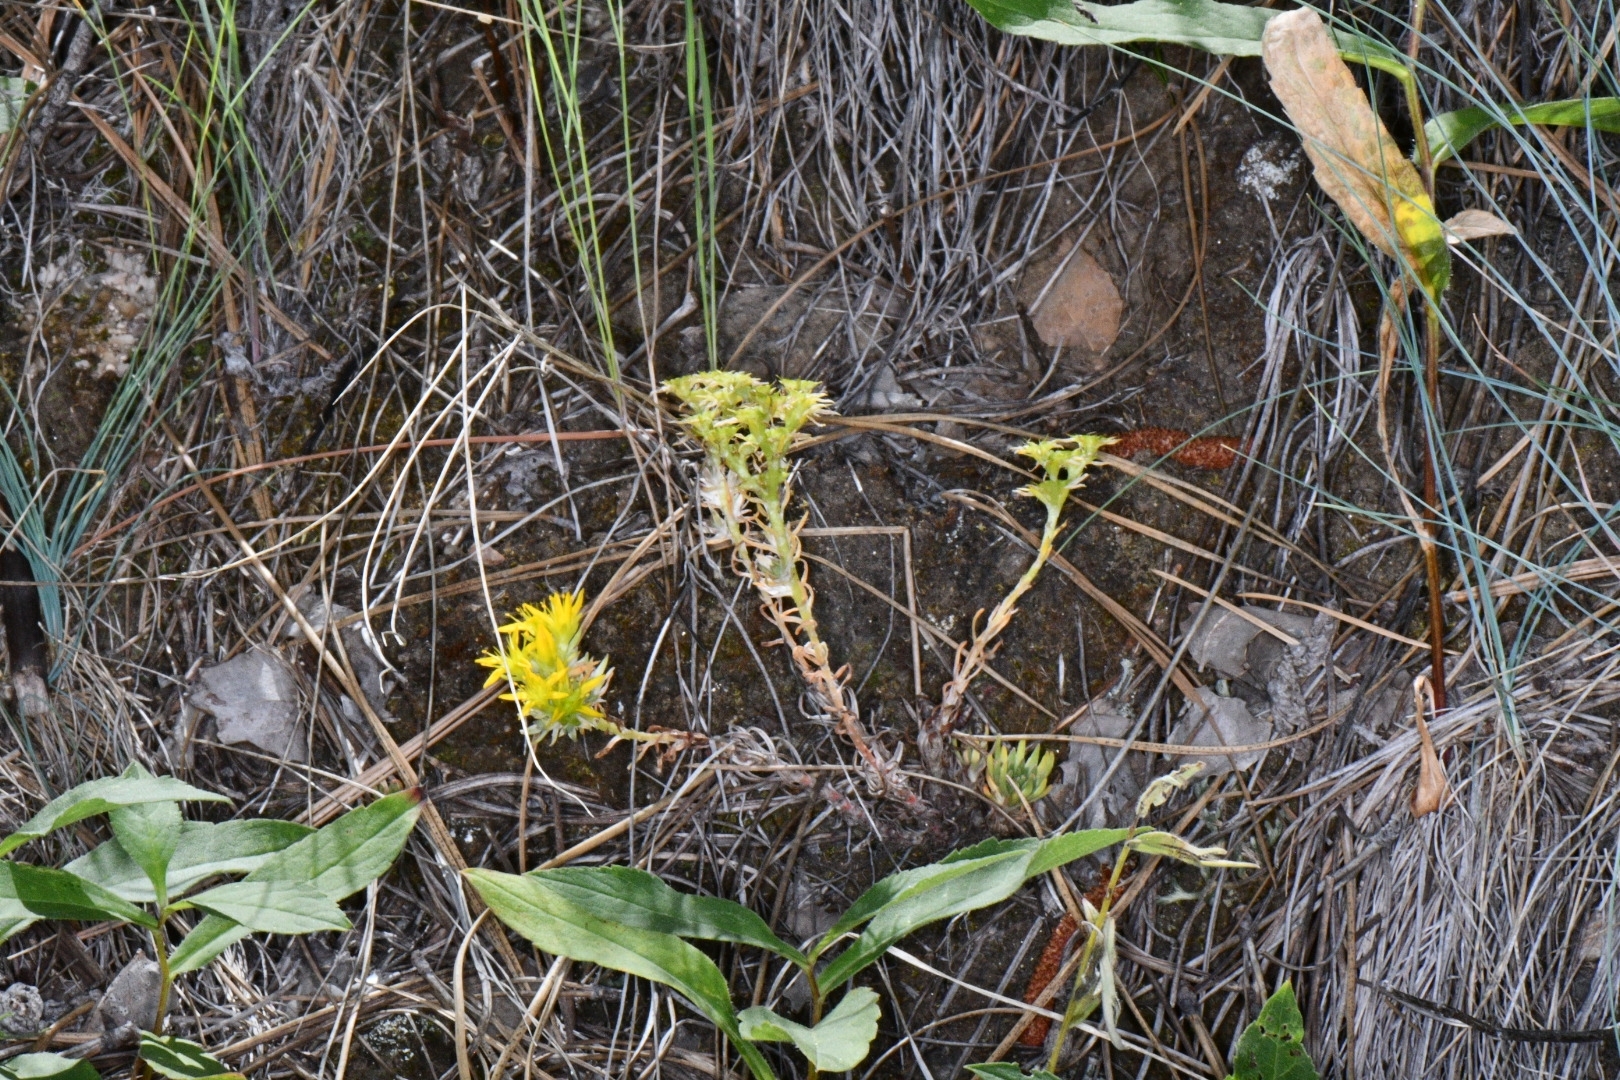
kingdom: Plantae
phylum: Tracheophyta
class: Magnoliopsida
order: Saxifragales
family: Crassulaceae
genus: Sedum
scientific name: Sedum stenopetalum
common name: Narrow-petaled stonecrop
